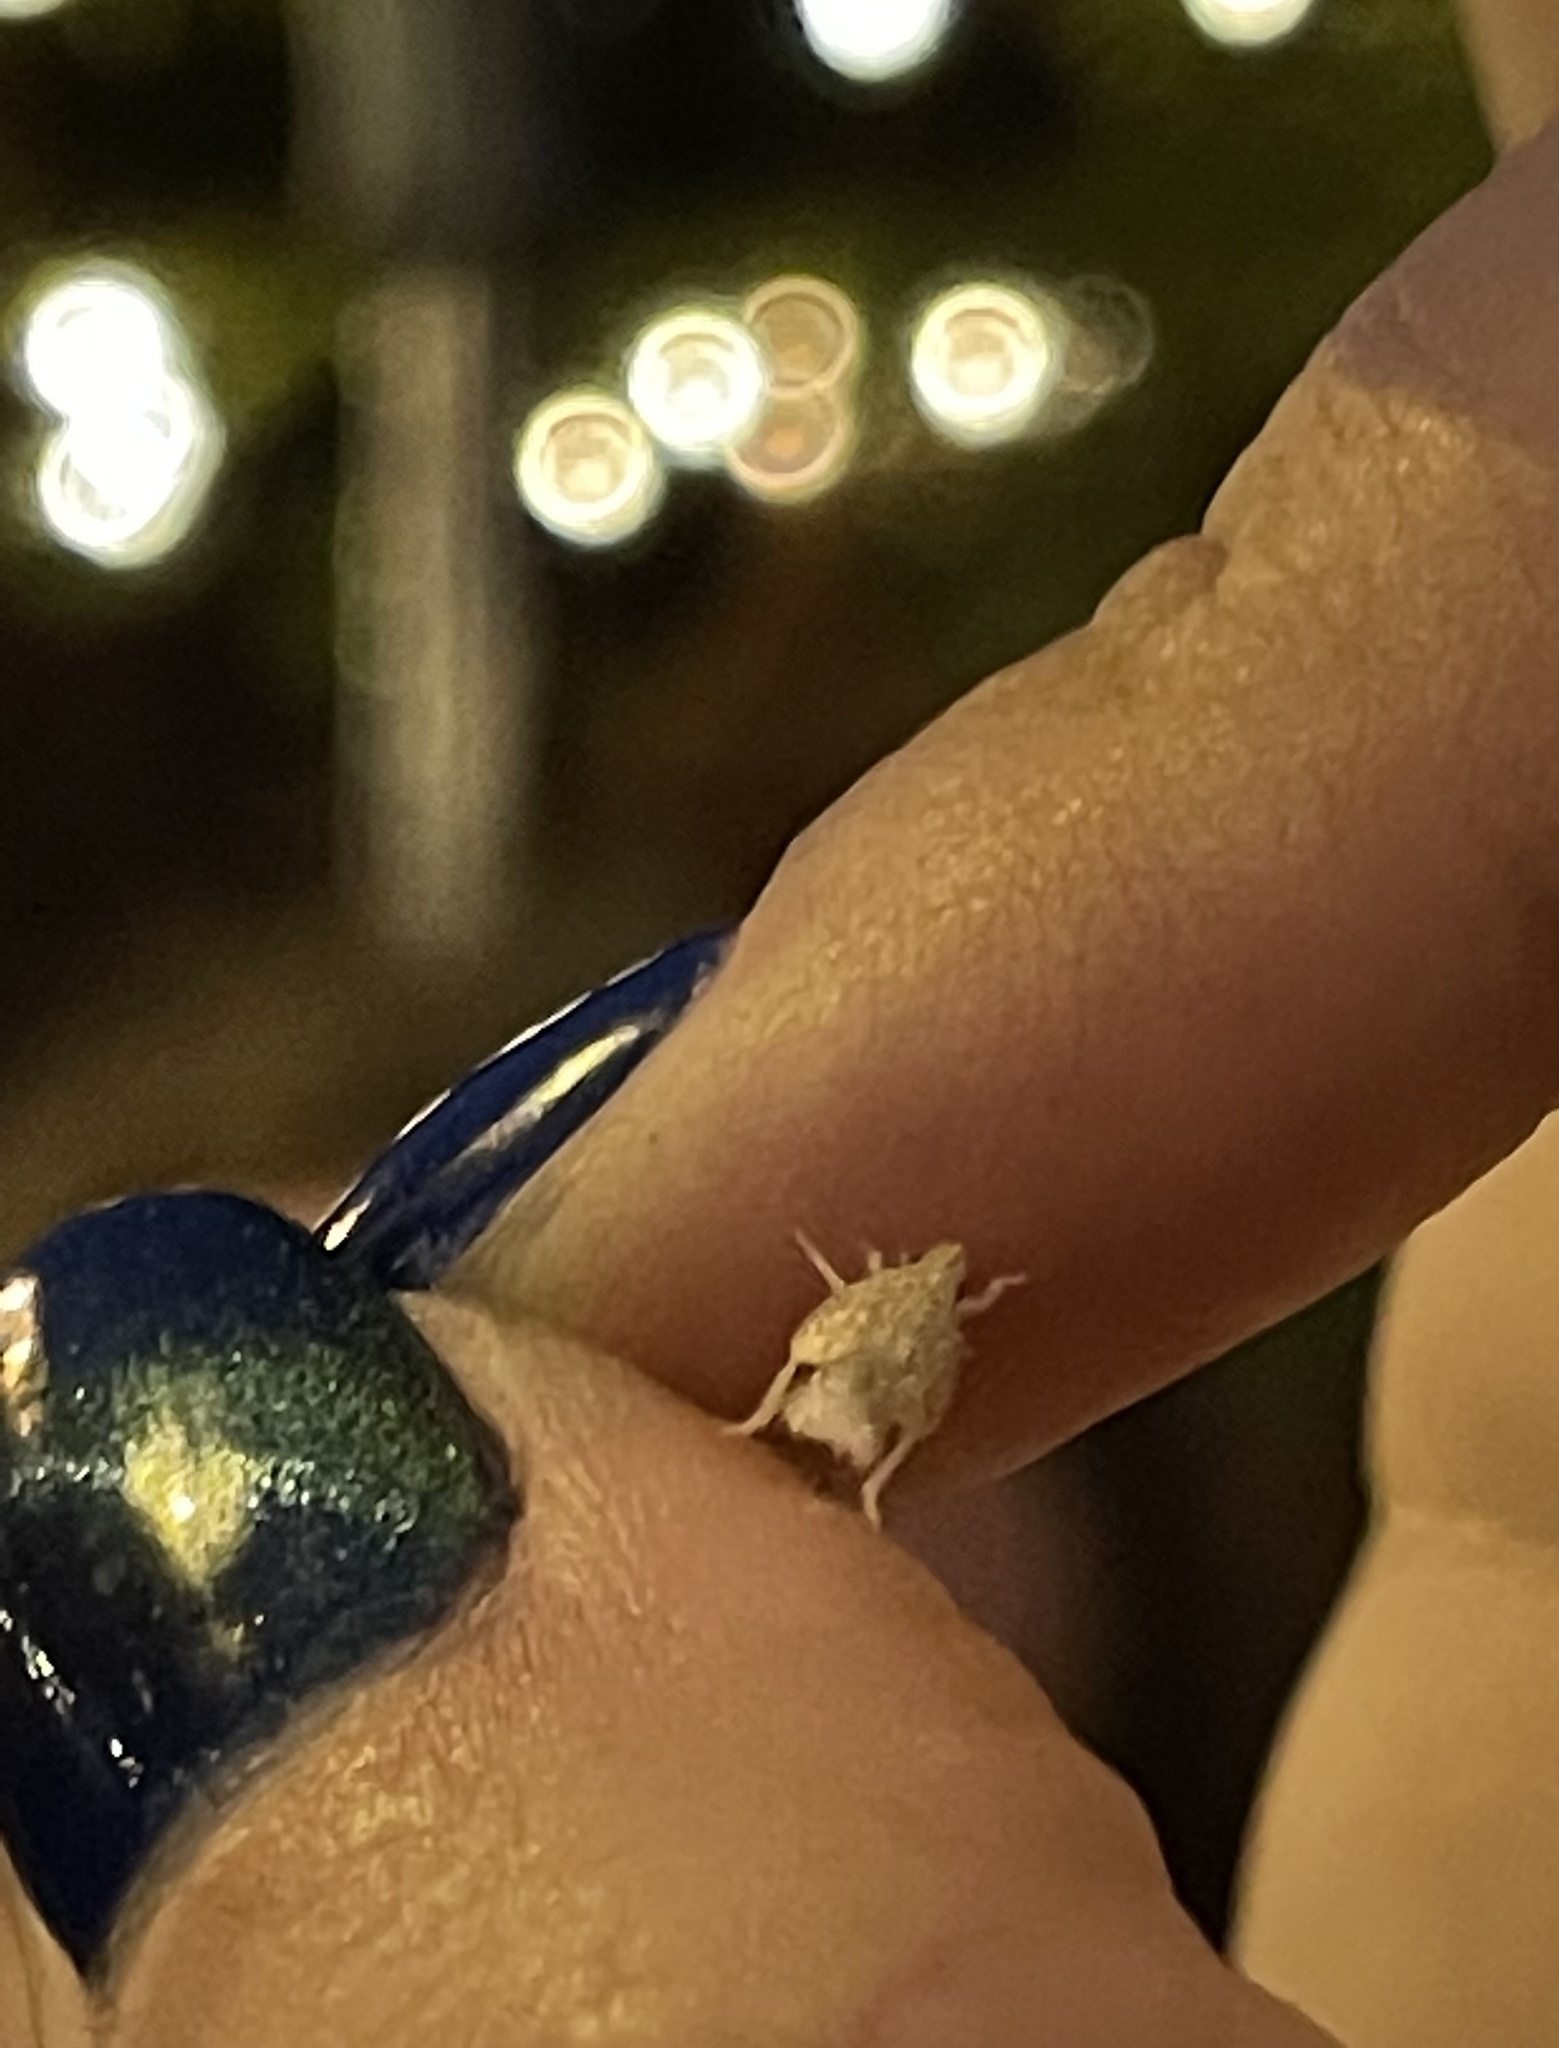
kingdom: Animalia
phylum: Arthropoda
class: Insecta
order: Hemiptera
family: Flatidae
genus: Siphanta
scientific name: Siphanta acuta
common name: Torpedo bug
